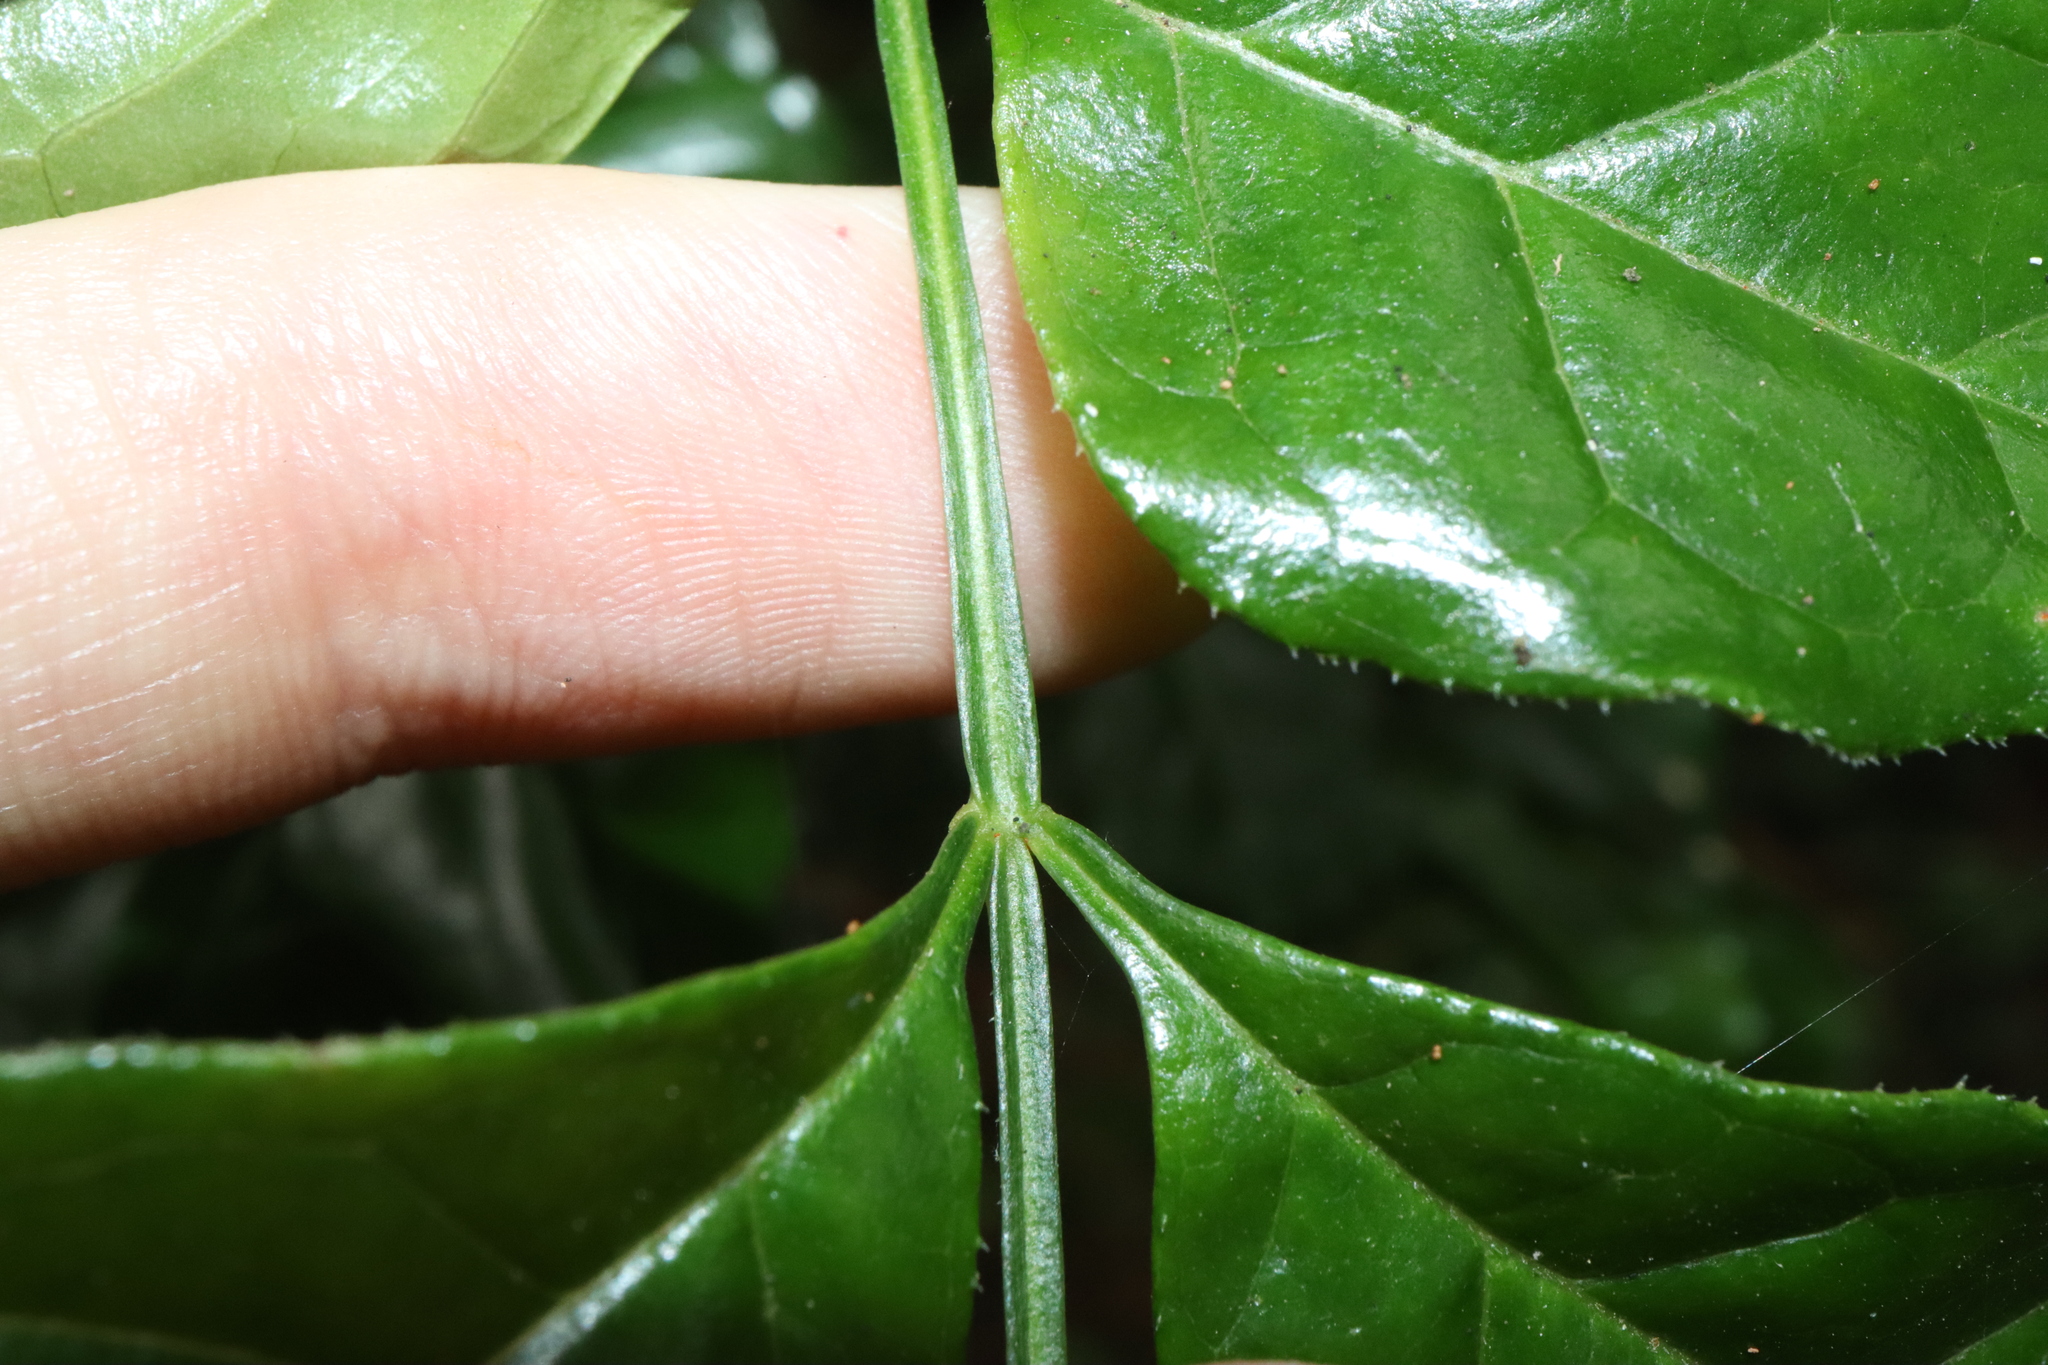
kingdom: Plantae
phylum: Tracheophyta
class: Magnoliopsida
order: Lamiales
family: Oleaceae
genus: Fraxinus
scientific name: Fraxinus griffithii
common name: Himalayan ash
